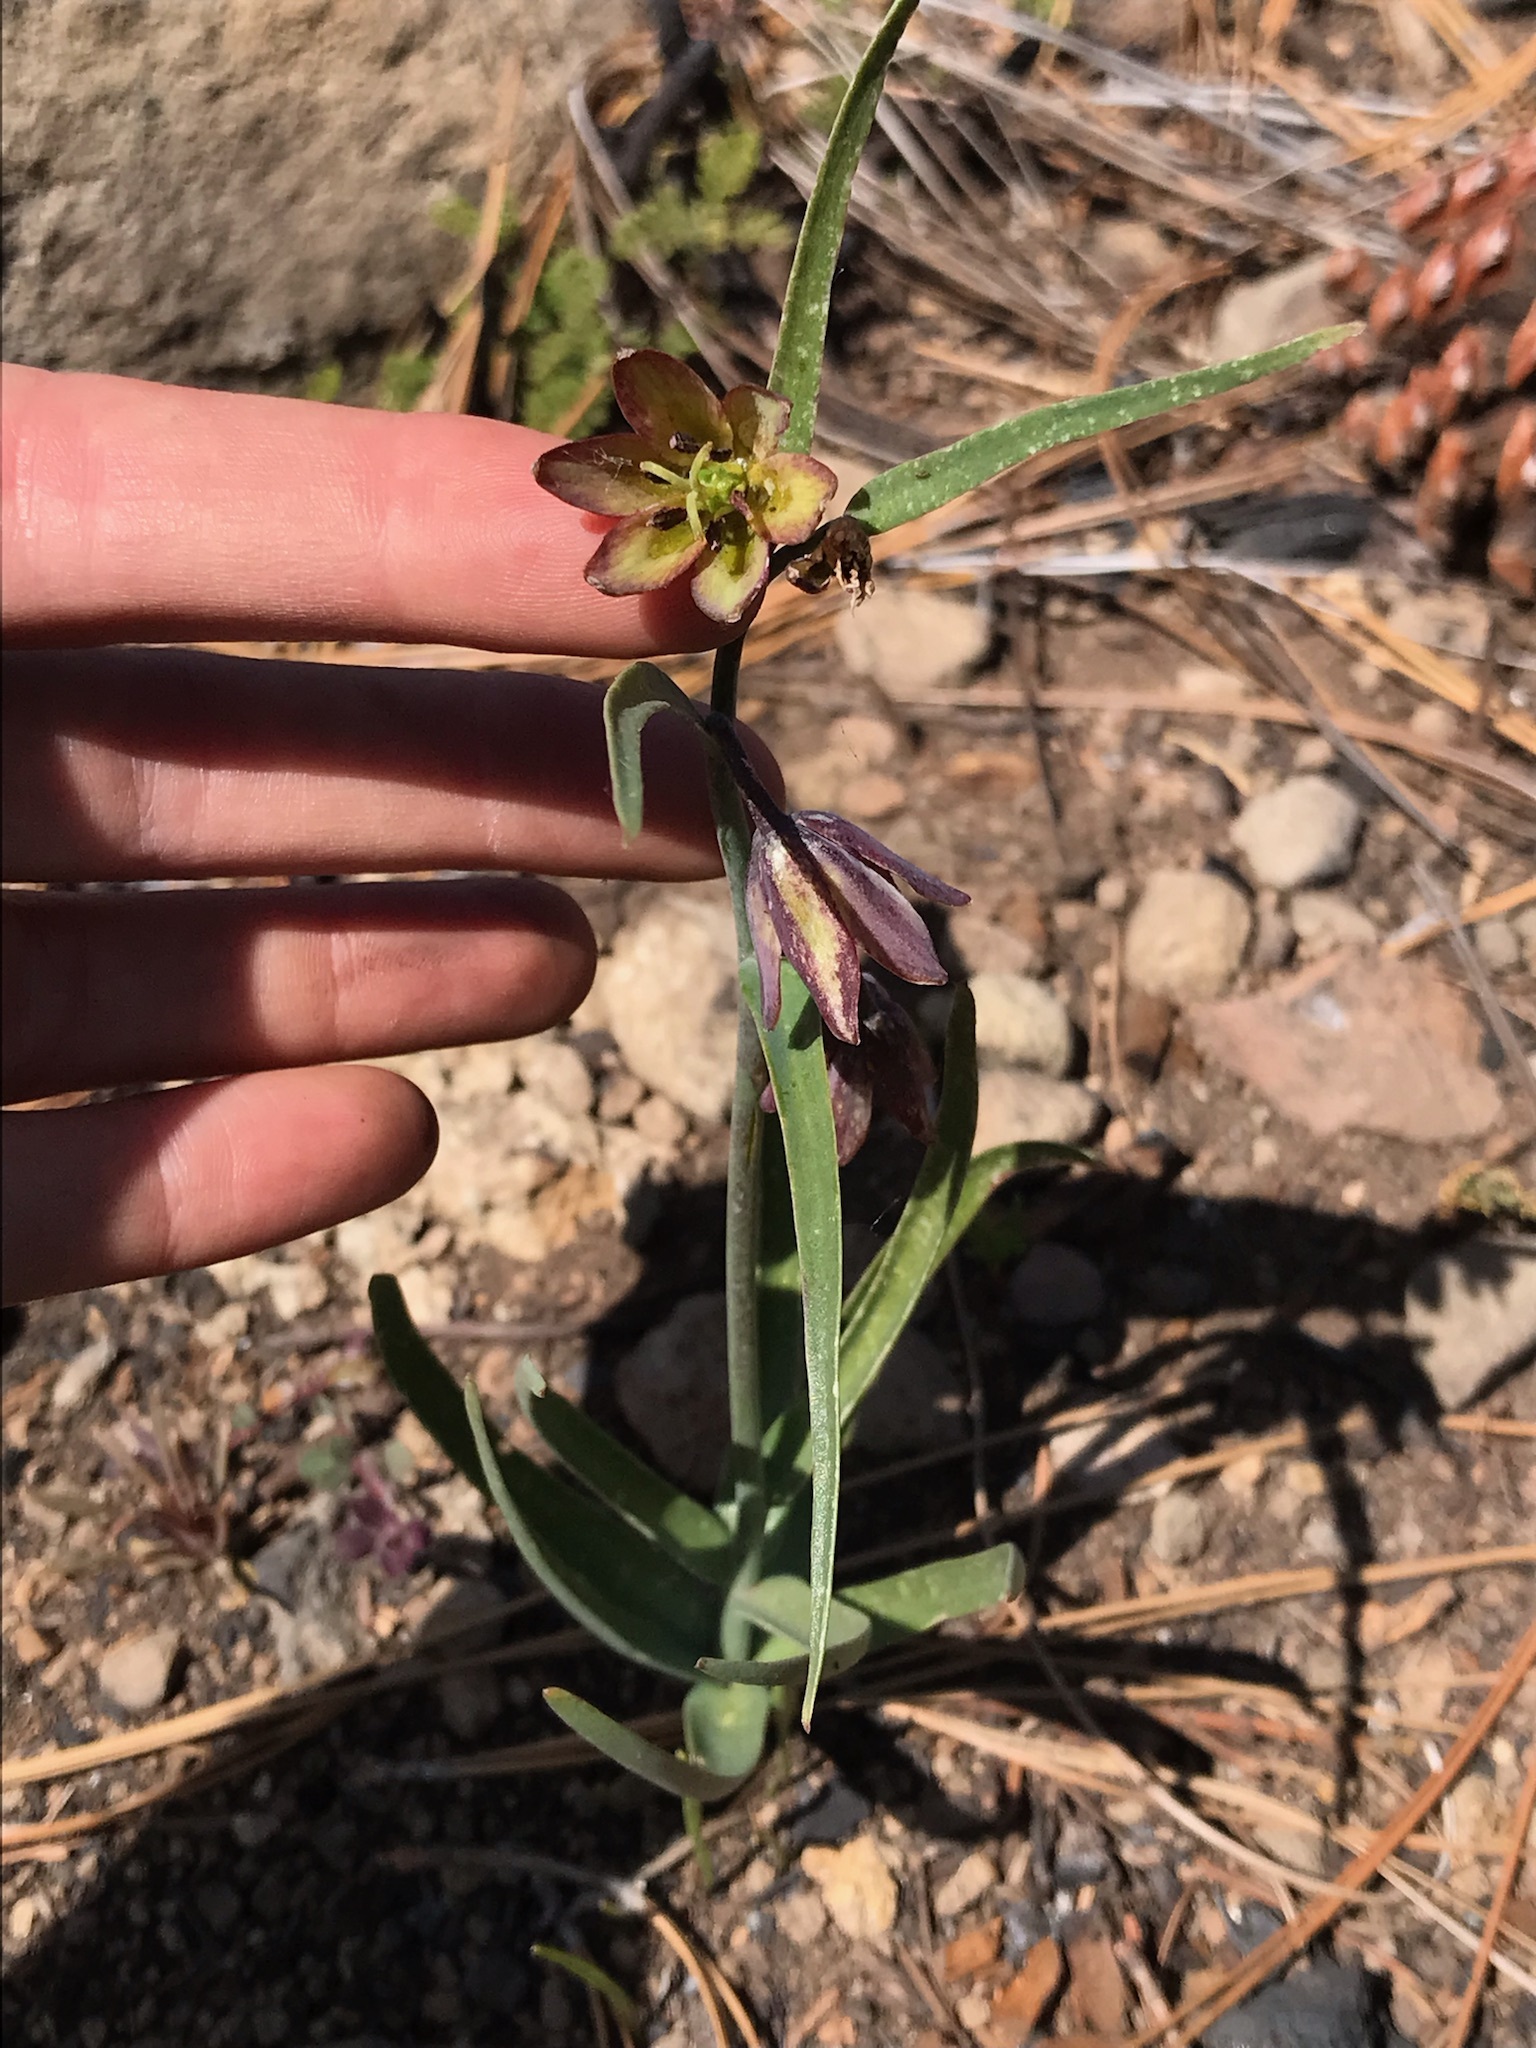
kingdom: Plantae
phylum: Tracheophyta
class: Liliopsida
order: Liliales
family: Liliaceae
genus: Fritillaria
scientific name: Fritillaria micrantha
